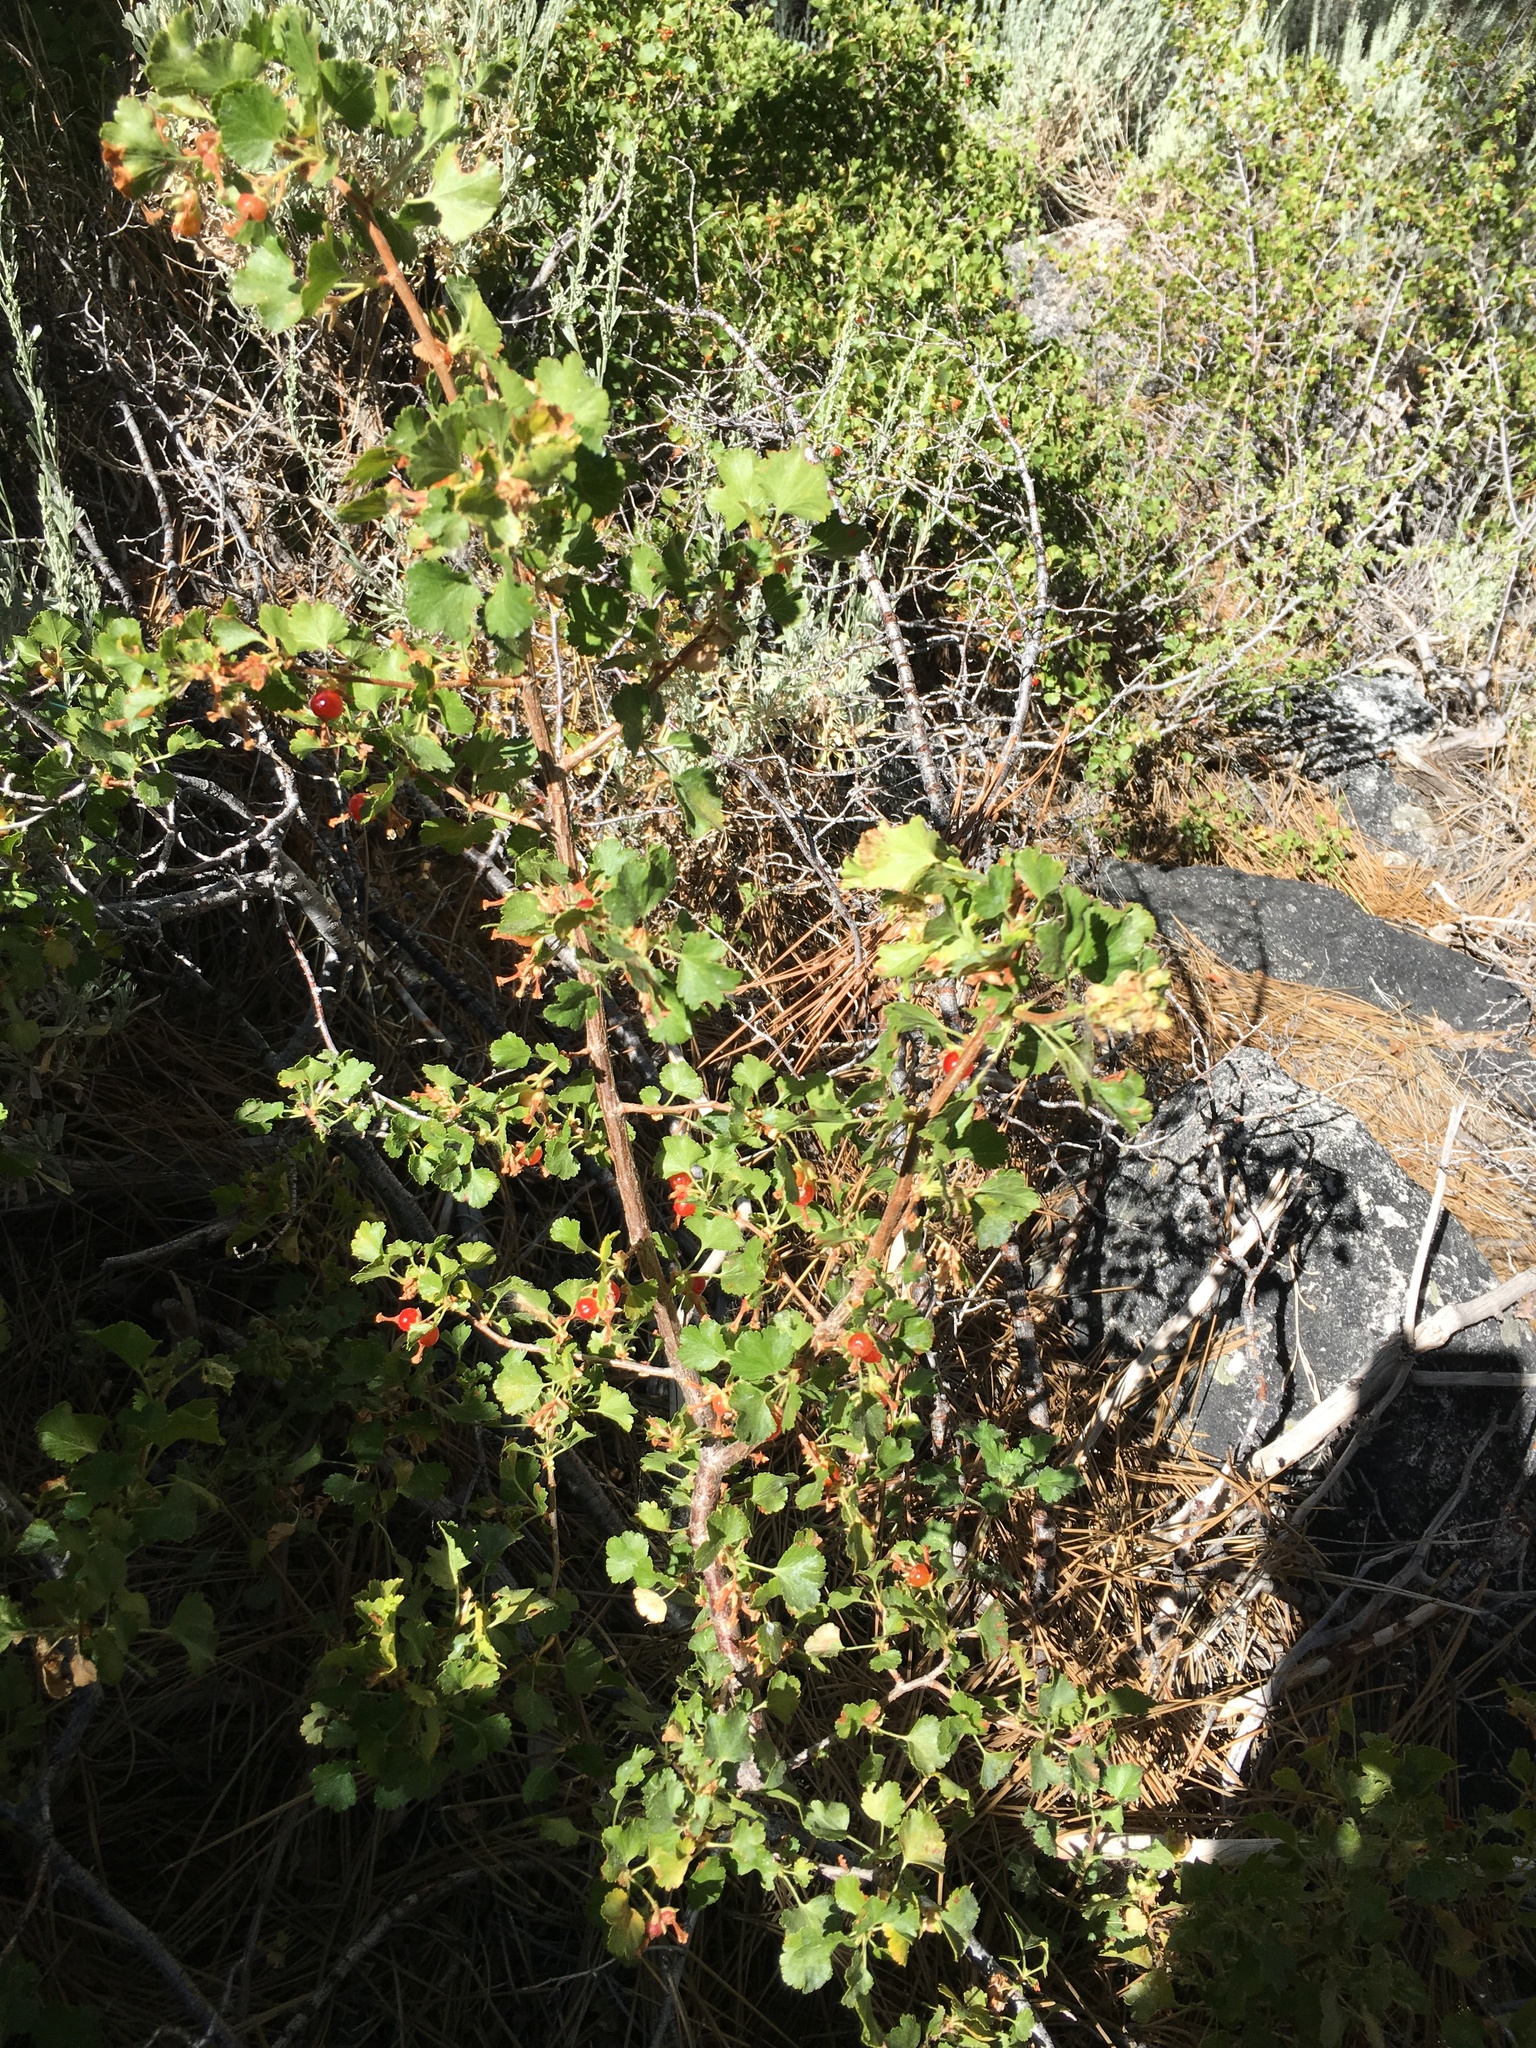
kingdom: Plantae
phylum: Tracheophyta
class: Magnoliopsida
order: Saxifragales
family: Grossulariaceae
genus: Ribes
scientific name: Ribes cereum
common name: Wax currant
